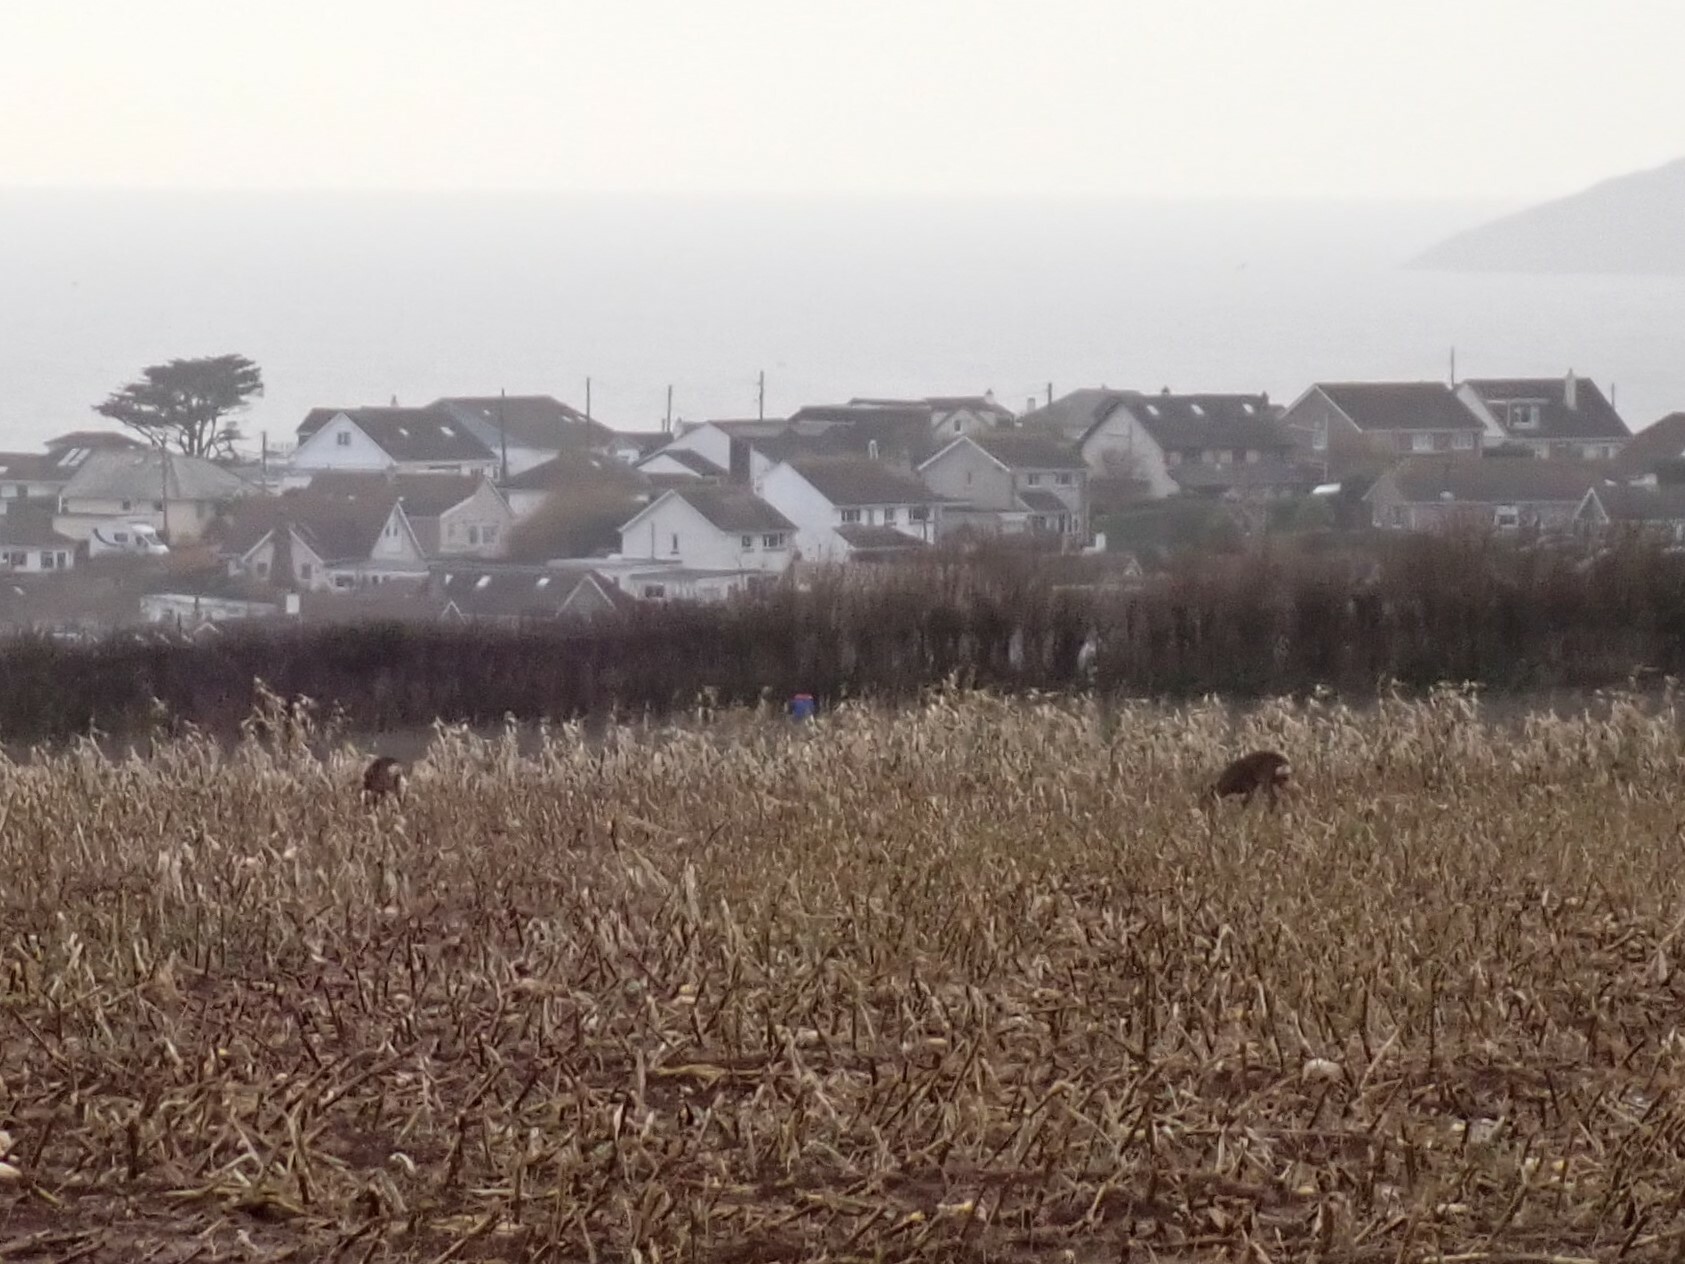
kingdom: Animalia
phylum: Chordata
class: Mammalia
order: Artiodactyla
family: Cervidae
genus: Capreolus
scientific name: Capreolus capreolus
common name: Western roe deer
